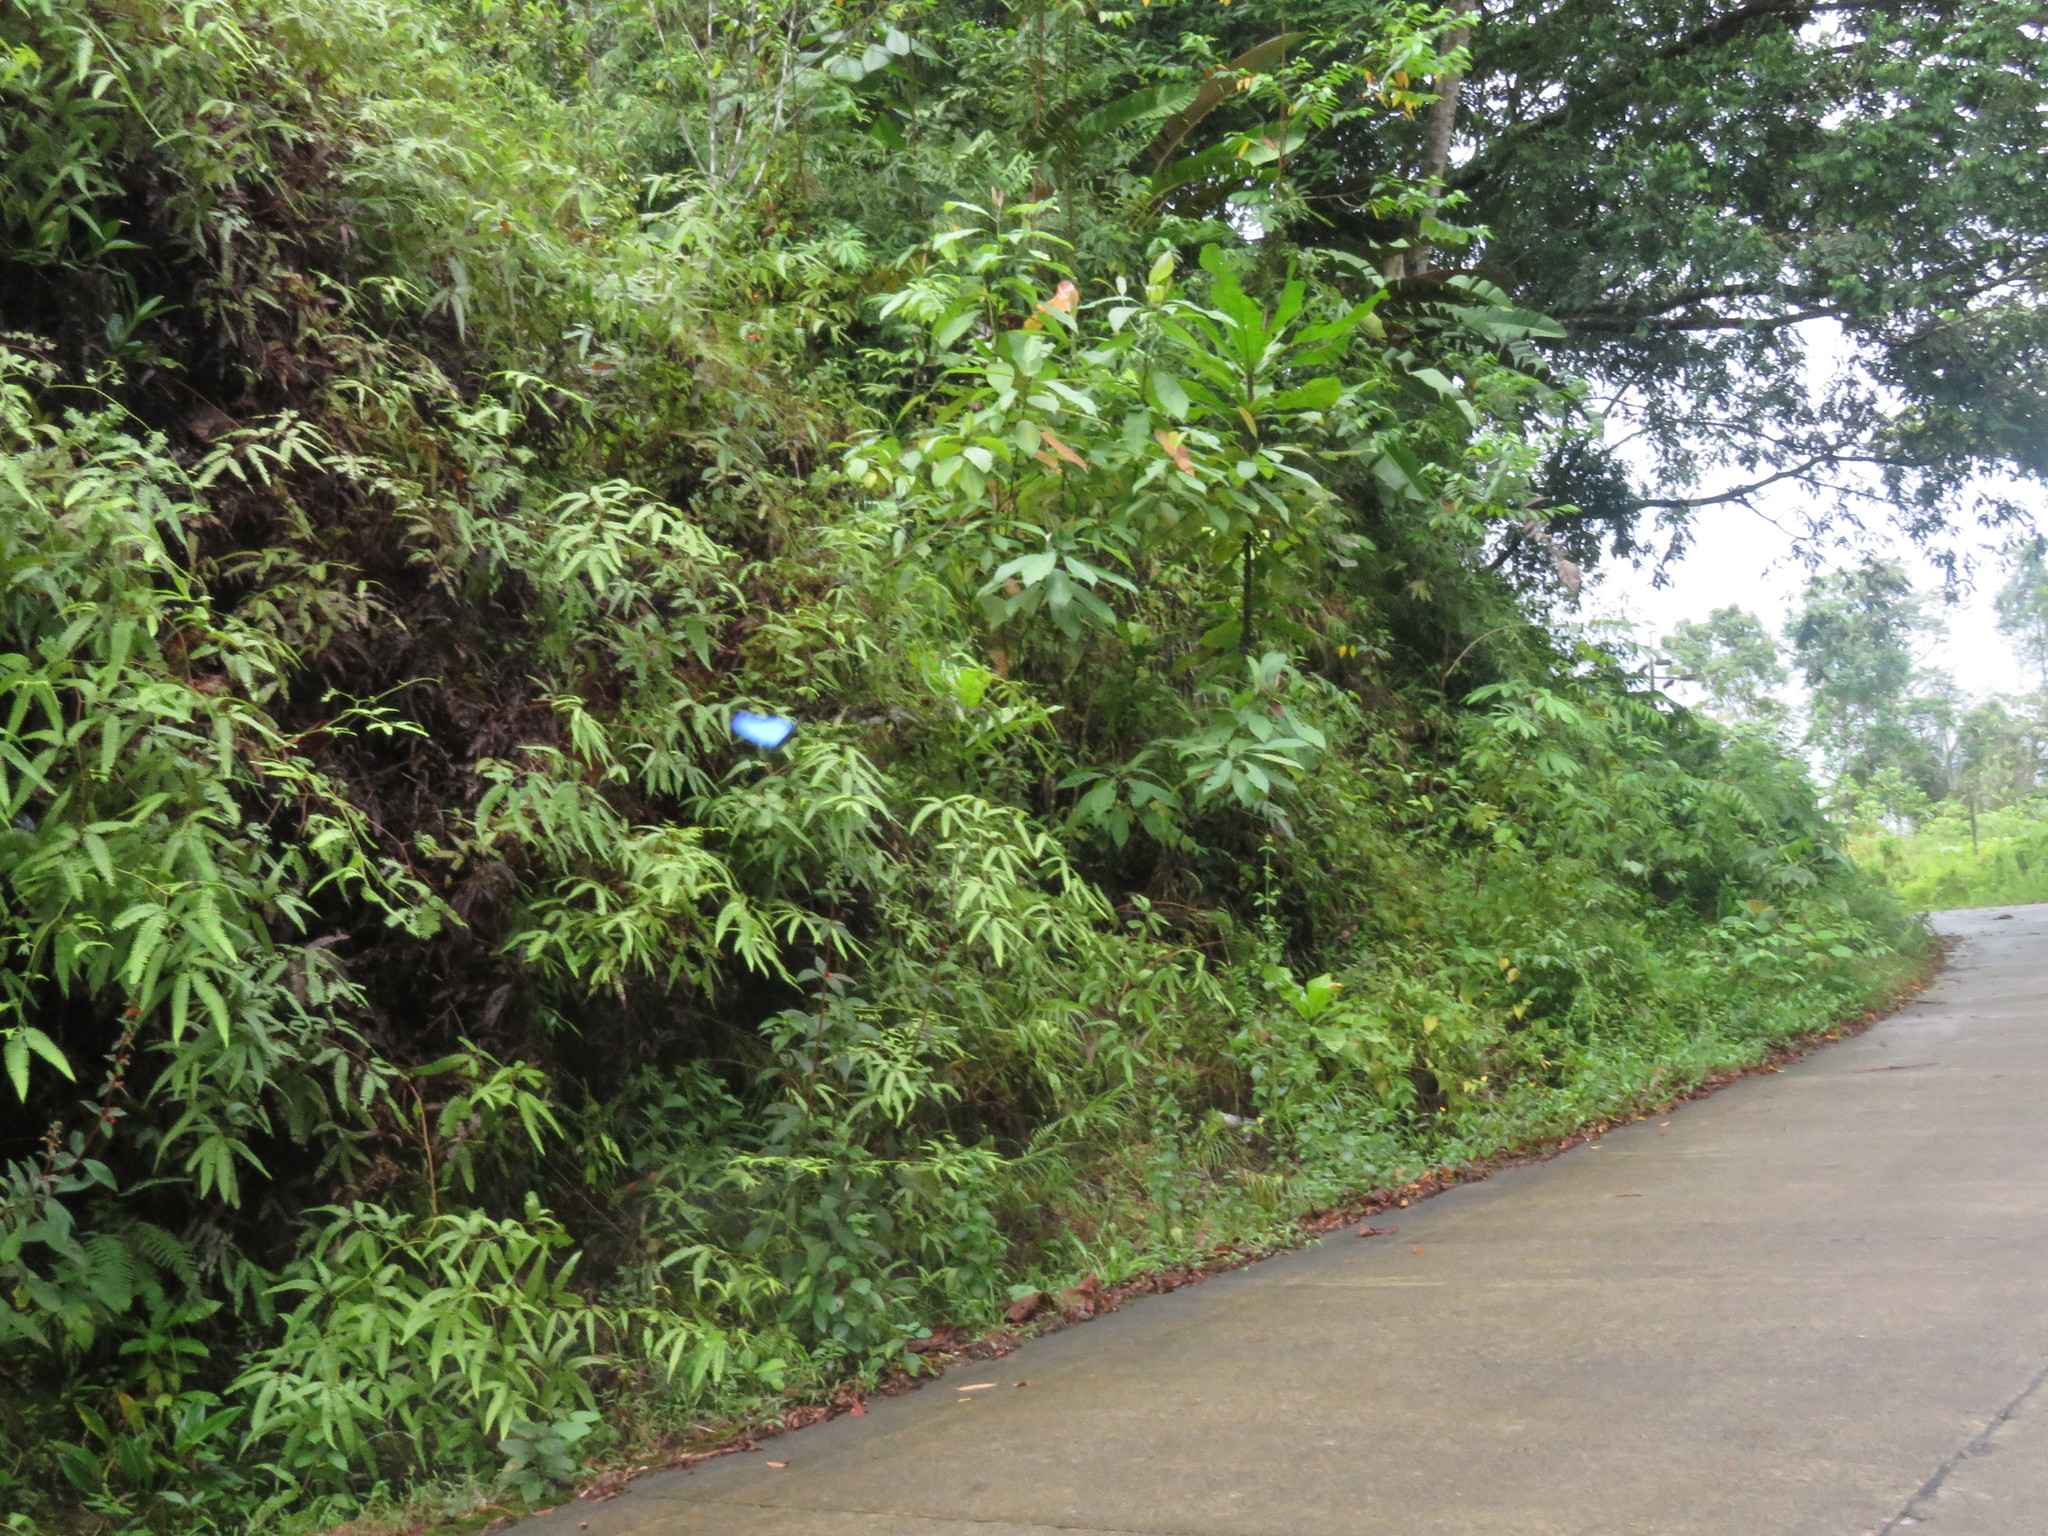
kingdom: Animalia
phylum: Arthropoda
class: Insecta
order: Lepidoptera
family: Nymphalidae
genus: Morpho
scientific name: Morpho amathonte
